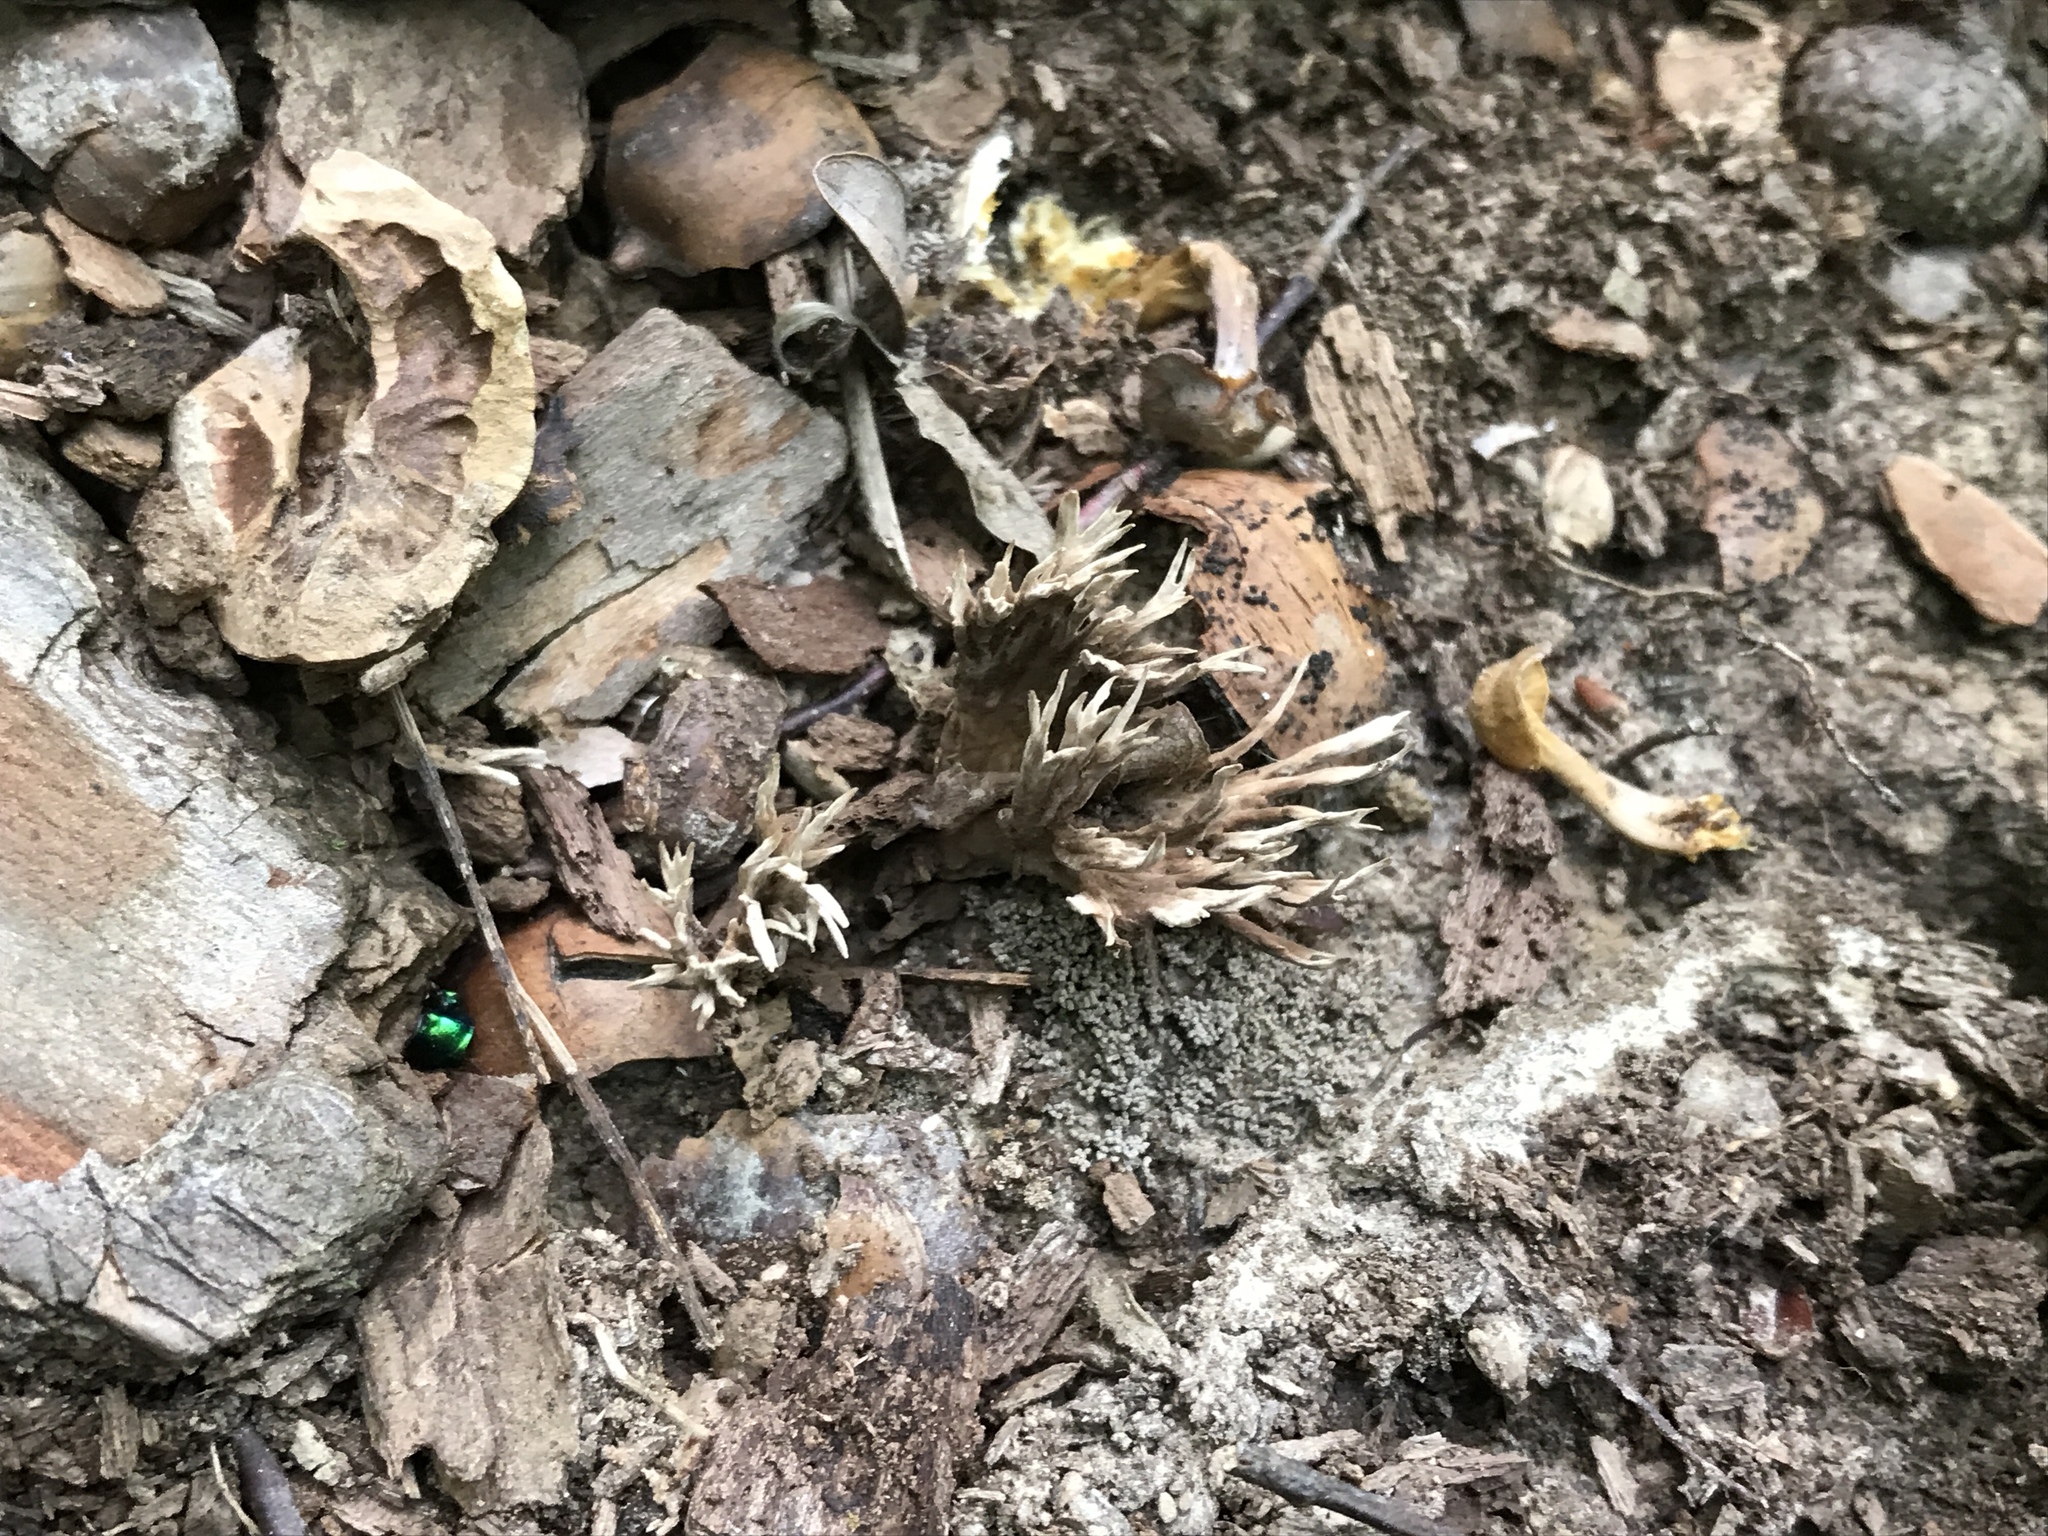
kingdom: Fungi
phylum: Basidiomycota
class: Agaricomycetes
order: Thelephorales
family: Thelephoraceae
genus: Thelephora
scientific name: Thelephora palmata
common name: Stinking earthfan
